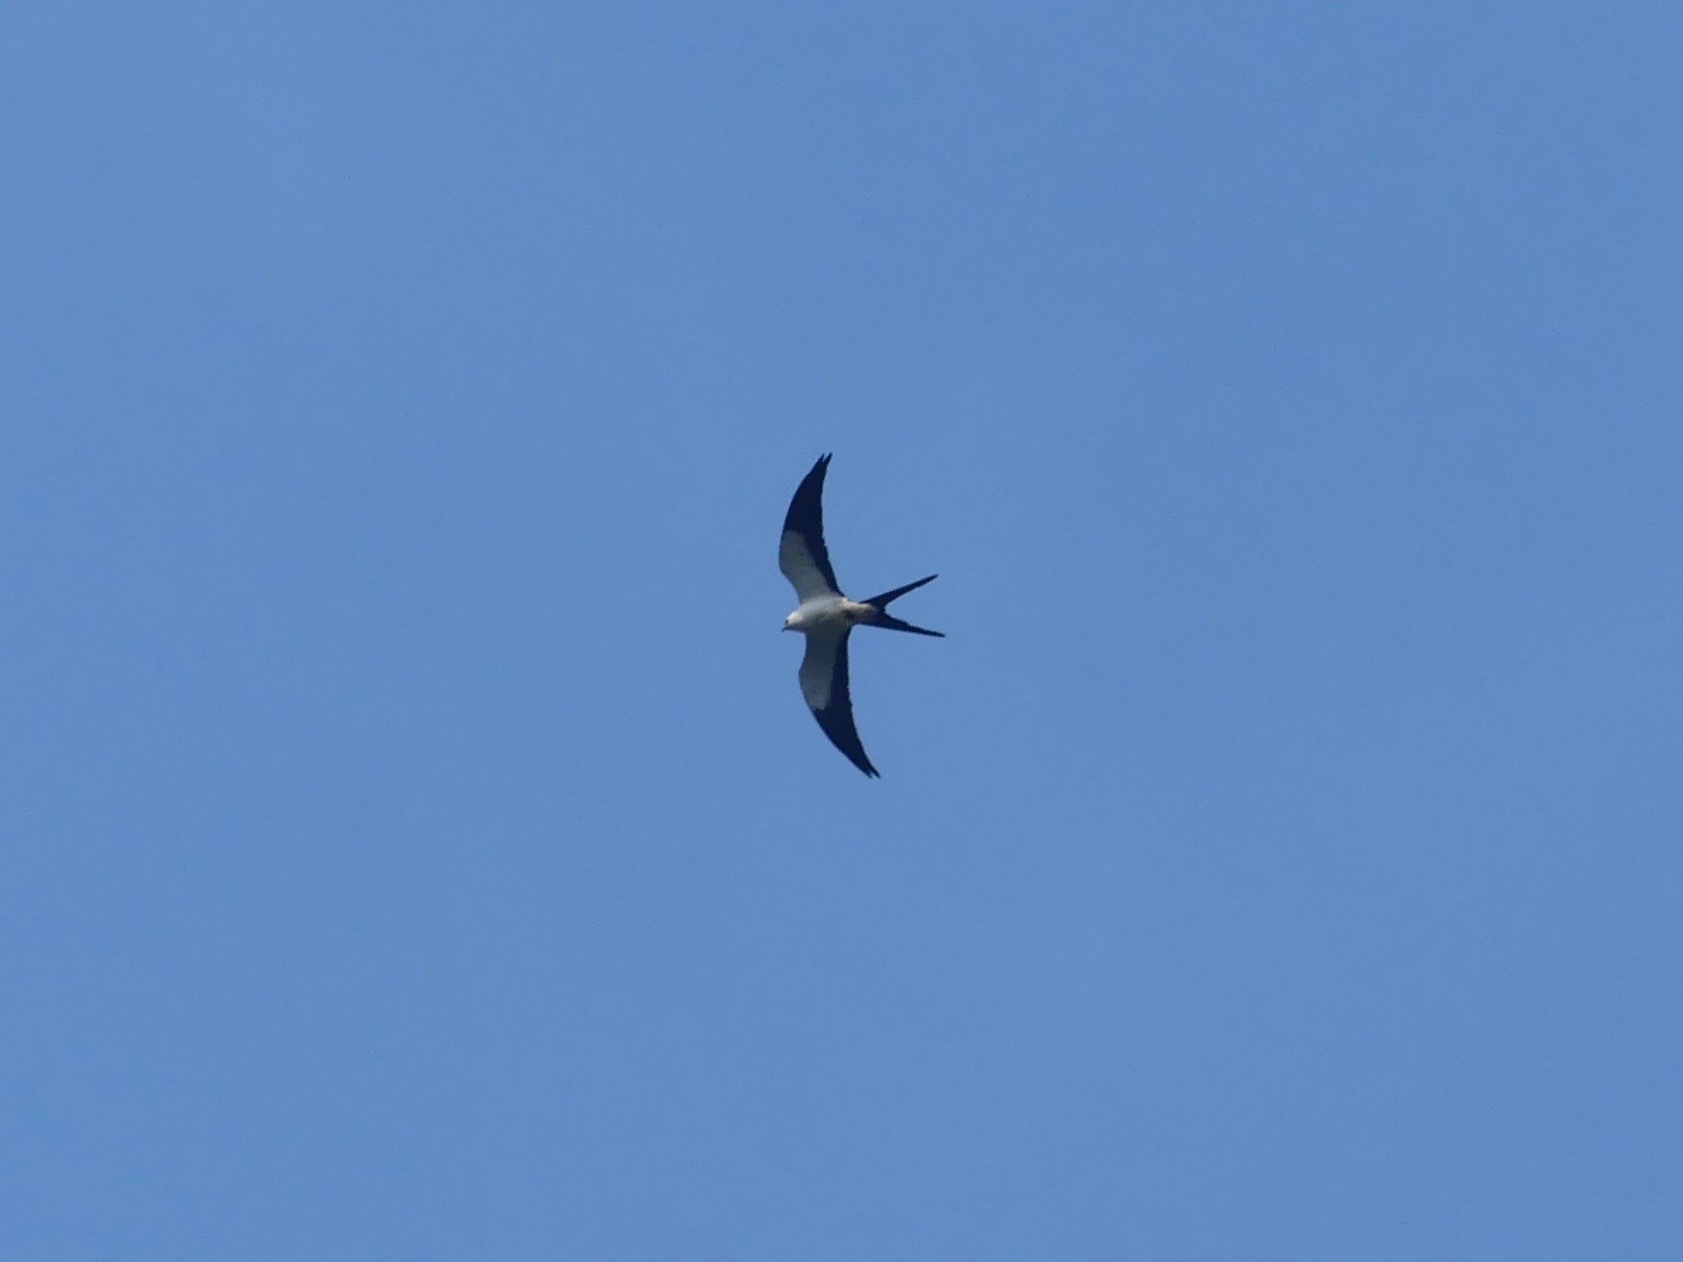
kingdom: Animalia
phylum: Chordata
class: Aves
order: Accipitriformes
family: Accipitridae
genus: Elanoides
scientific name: Elanoides forficatus
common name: Swallow-tailed kite
